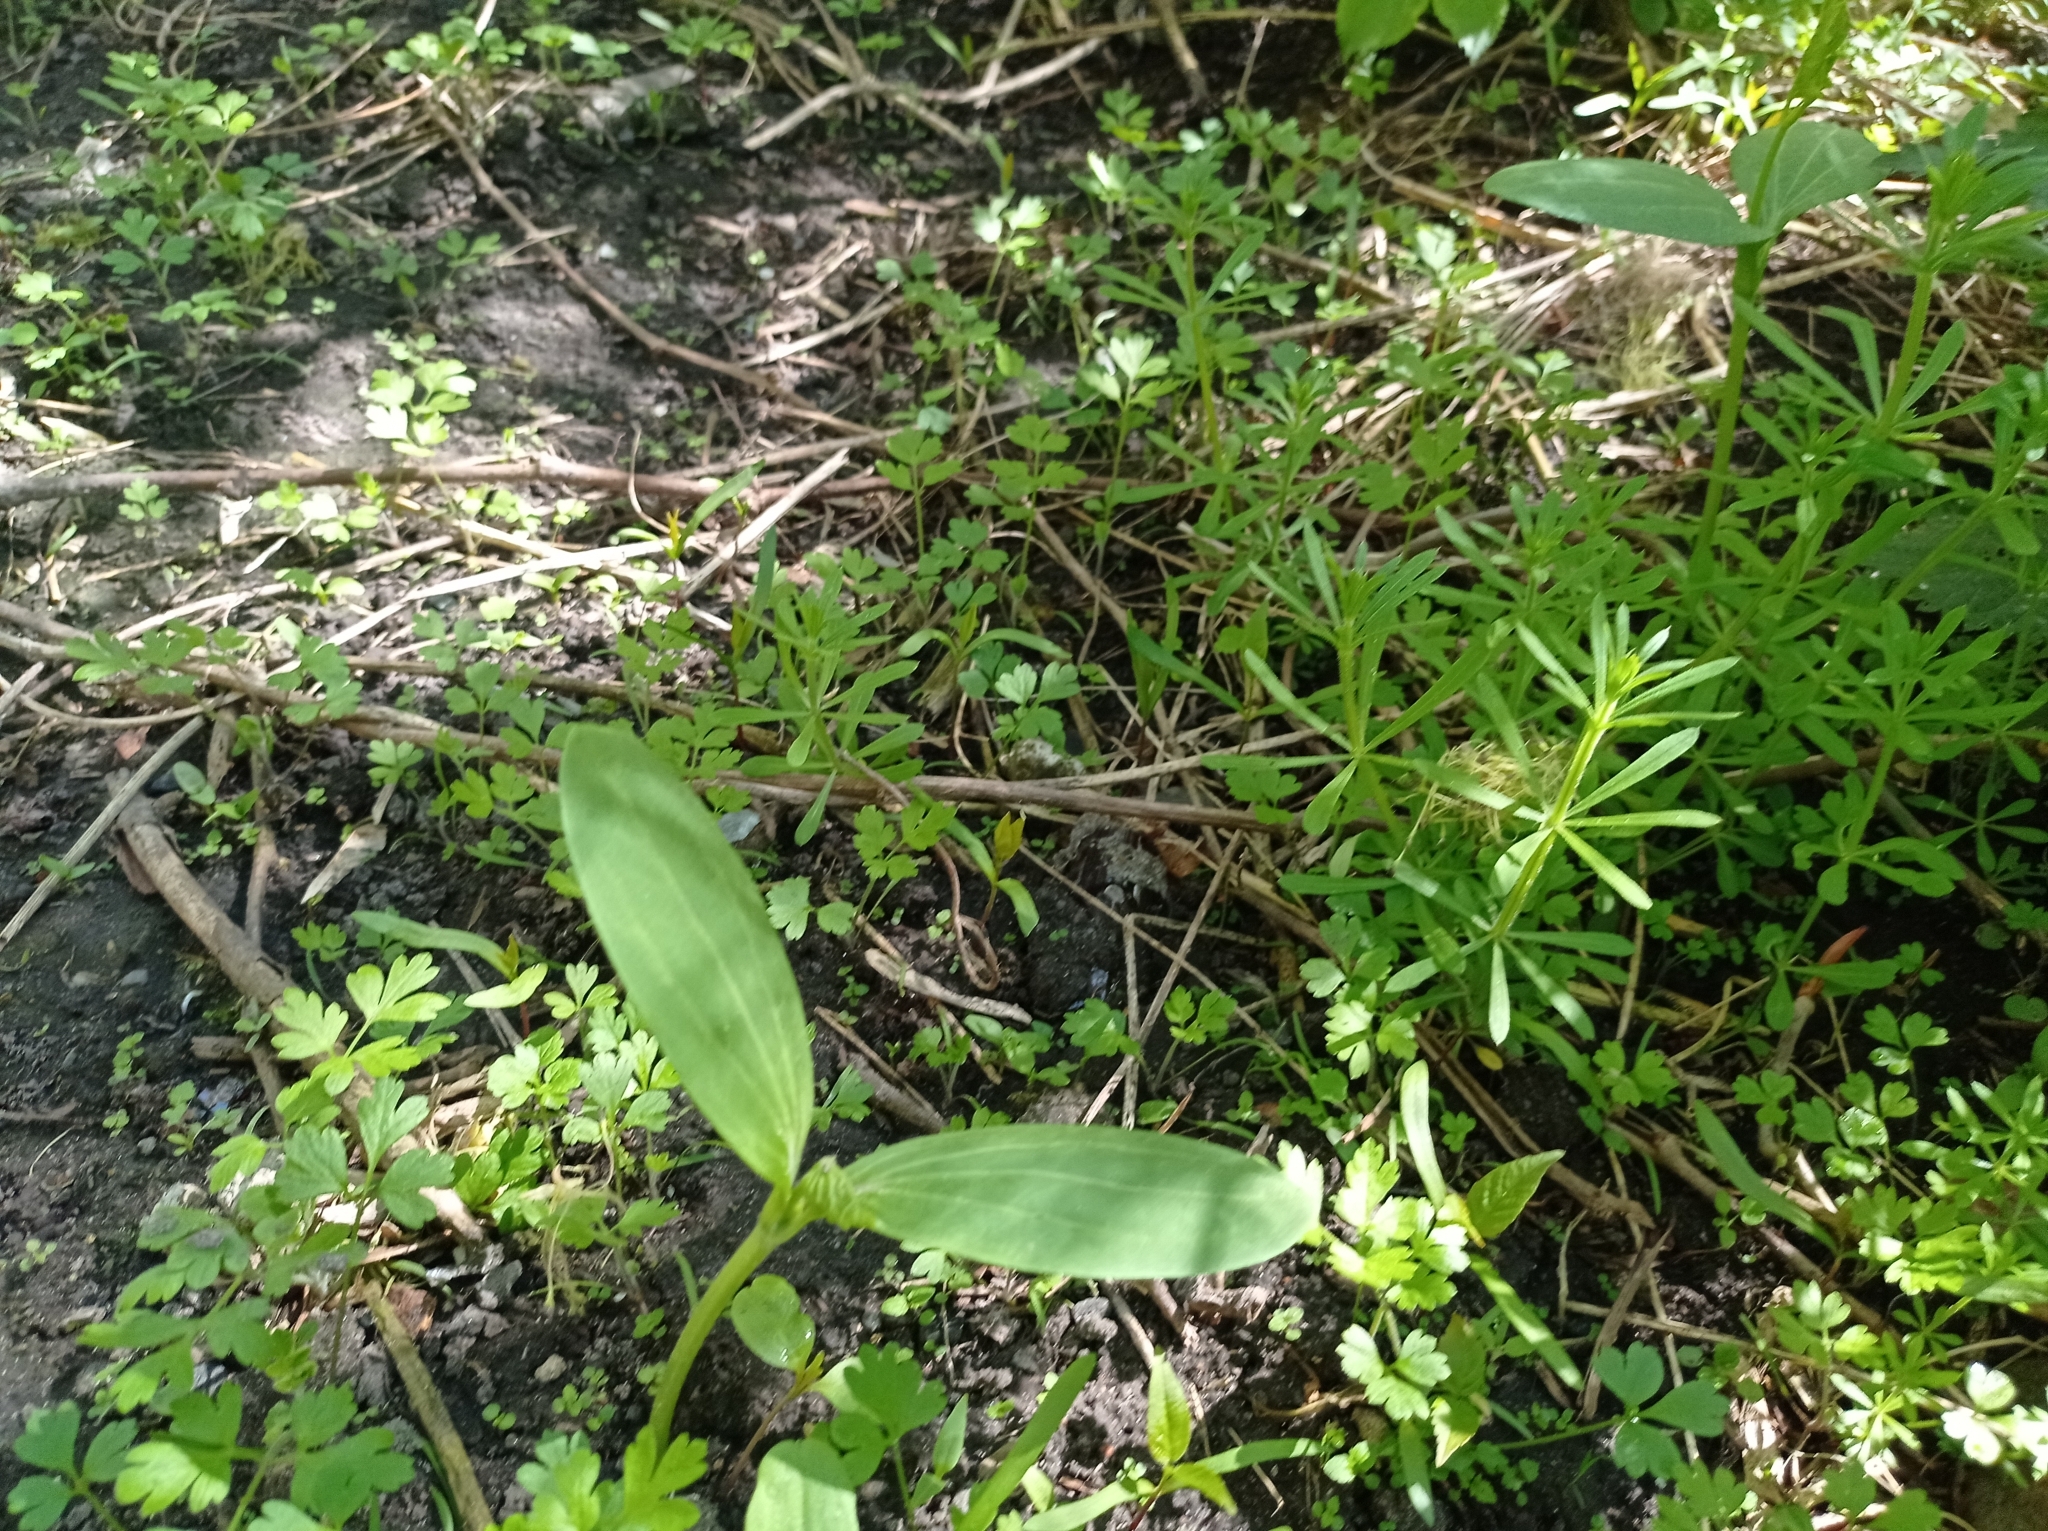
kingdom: Plantae
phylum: Tracheophyta
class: Magnoliopsida
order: Cucurbitales
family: Cucurbitaceae
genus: Echinocystis
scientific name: Echinocystis lobata
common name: Wild cucumber
